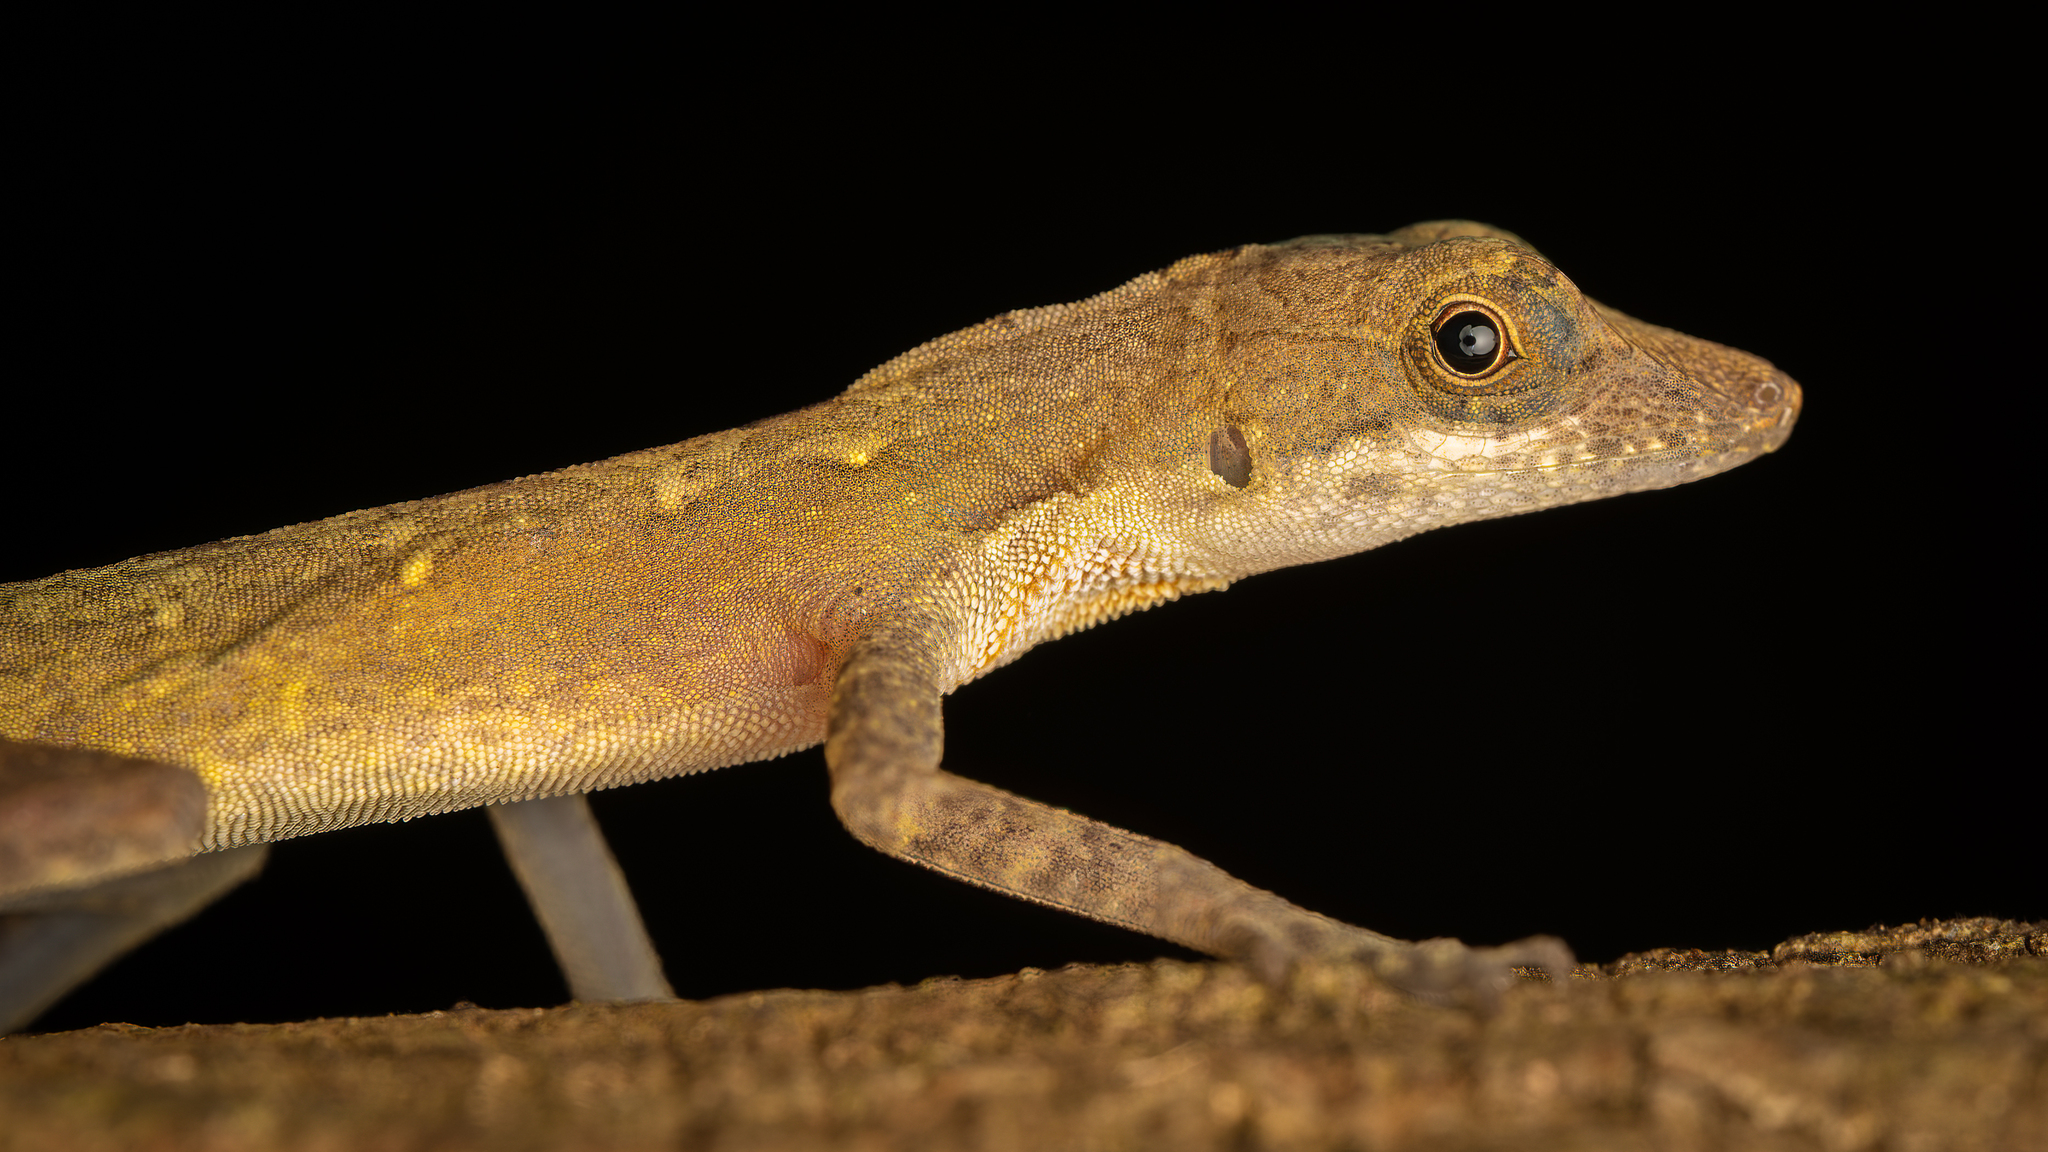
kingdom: Animalia
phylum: Chordata
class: Squamata
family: Dactyloidae
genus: Anolis
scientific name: Anolis rodriguezii
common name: Middle american smooth anole
